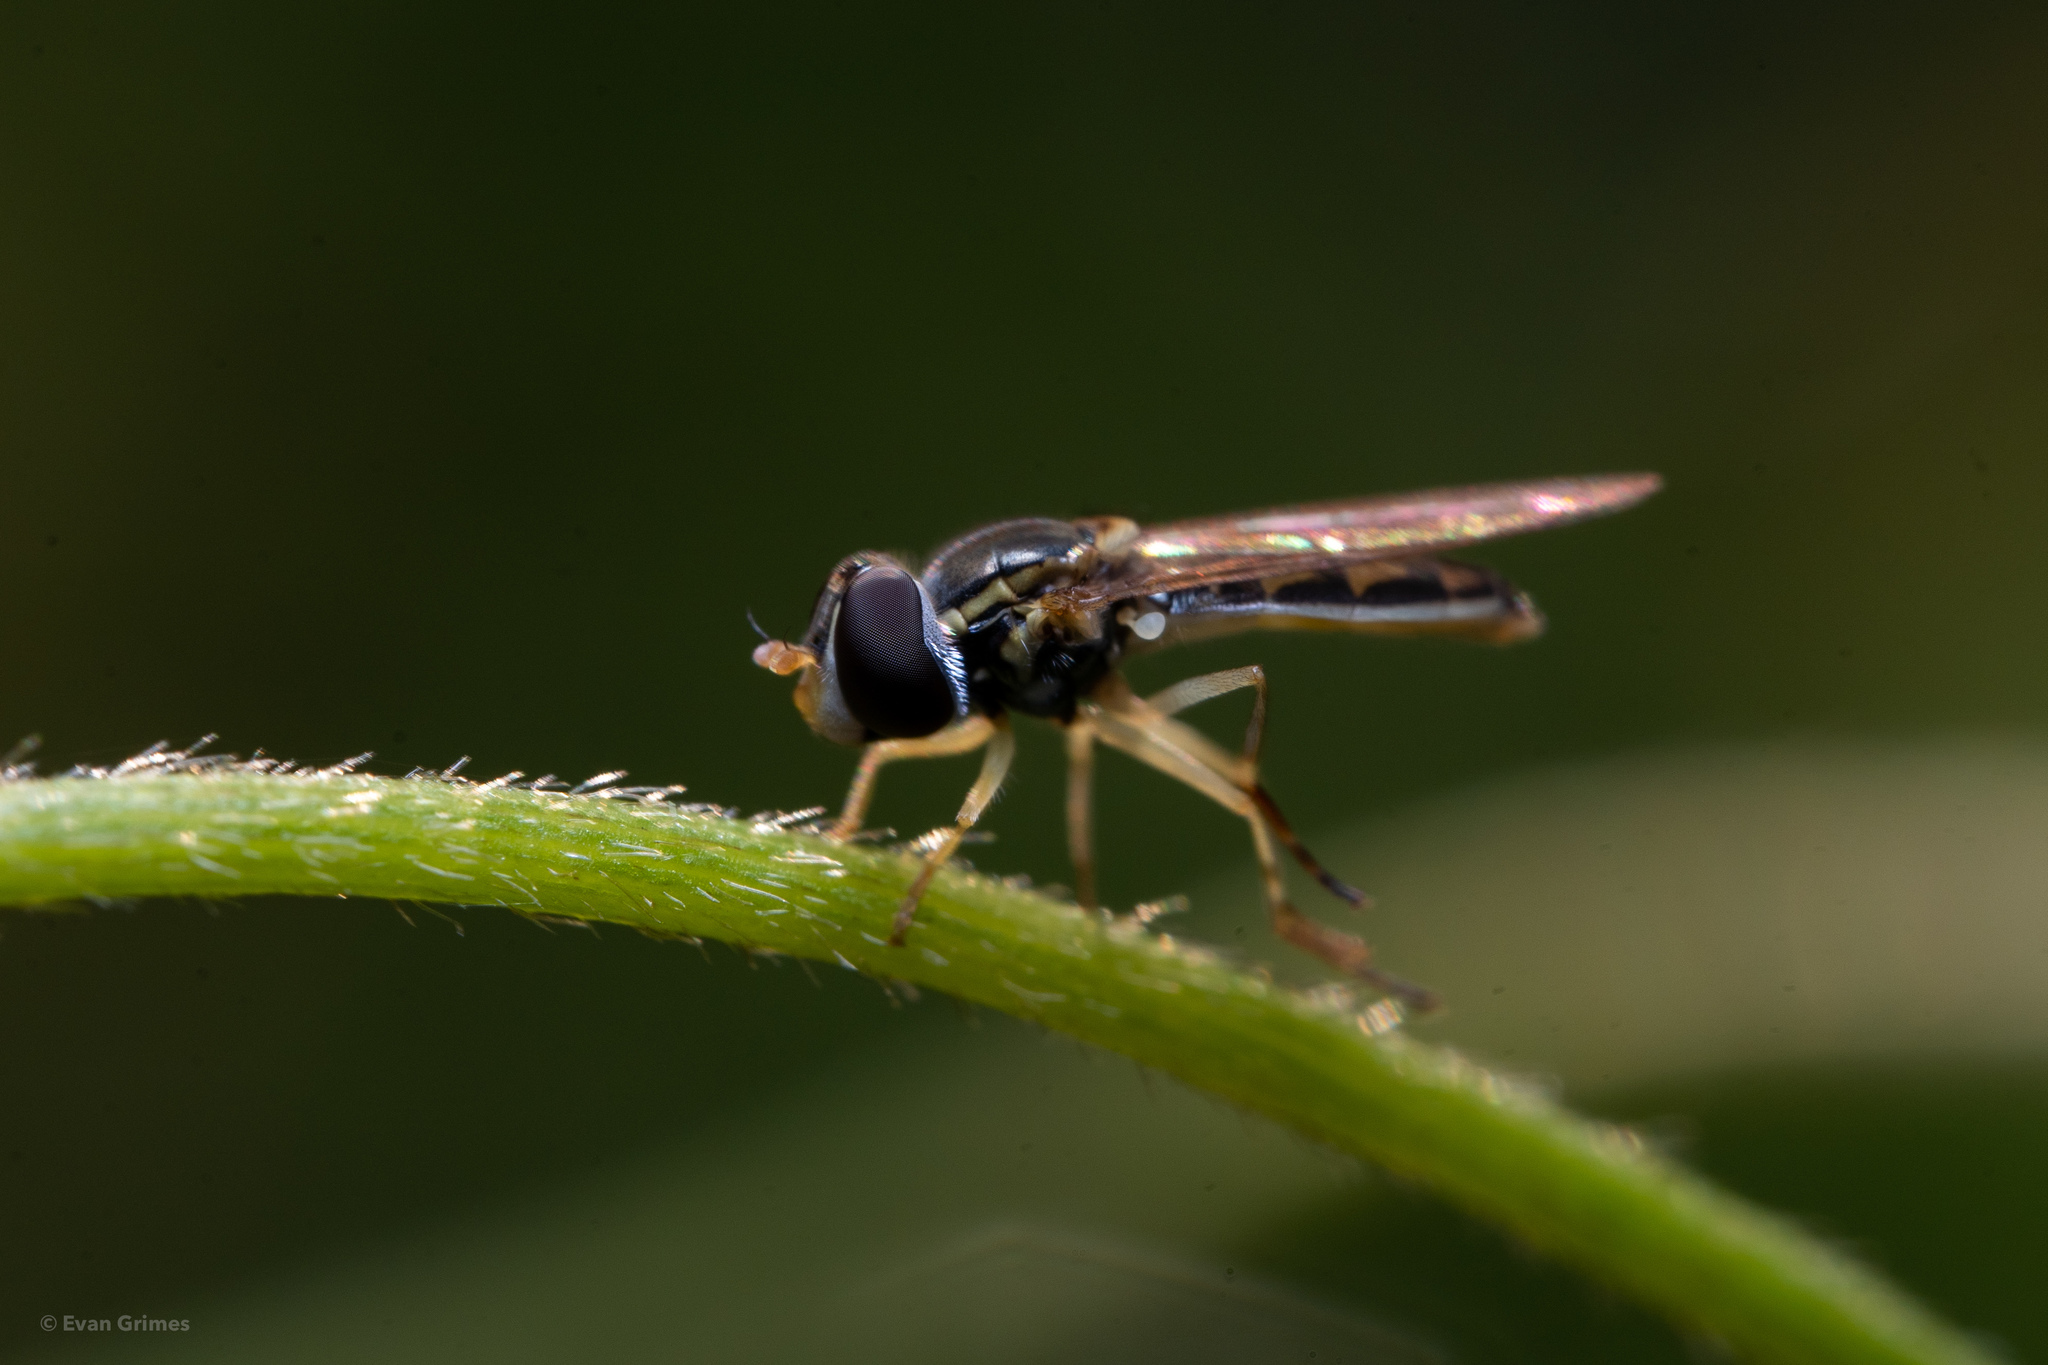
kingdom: Animalia
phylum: Arthropoda
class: Insecta
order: Diptera
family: Syrphidae
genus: Toxomerus
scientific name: Toxomerus marginatus
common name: Syrphid fly
